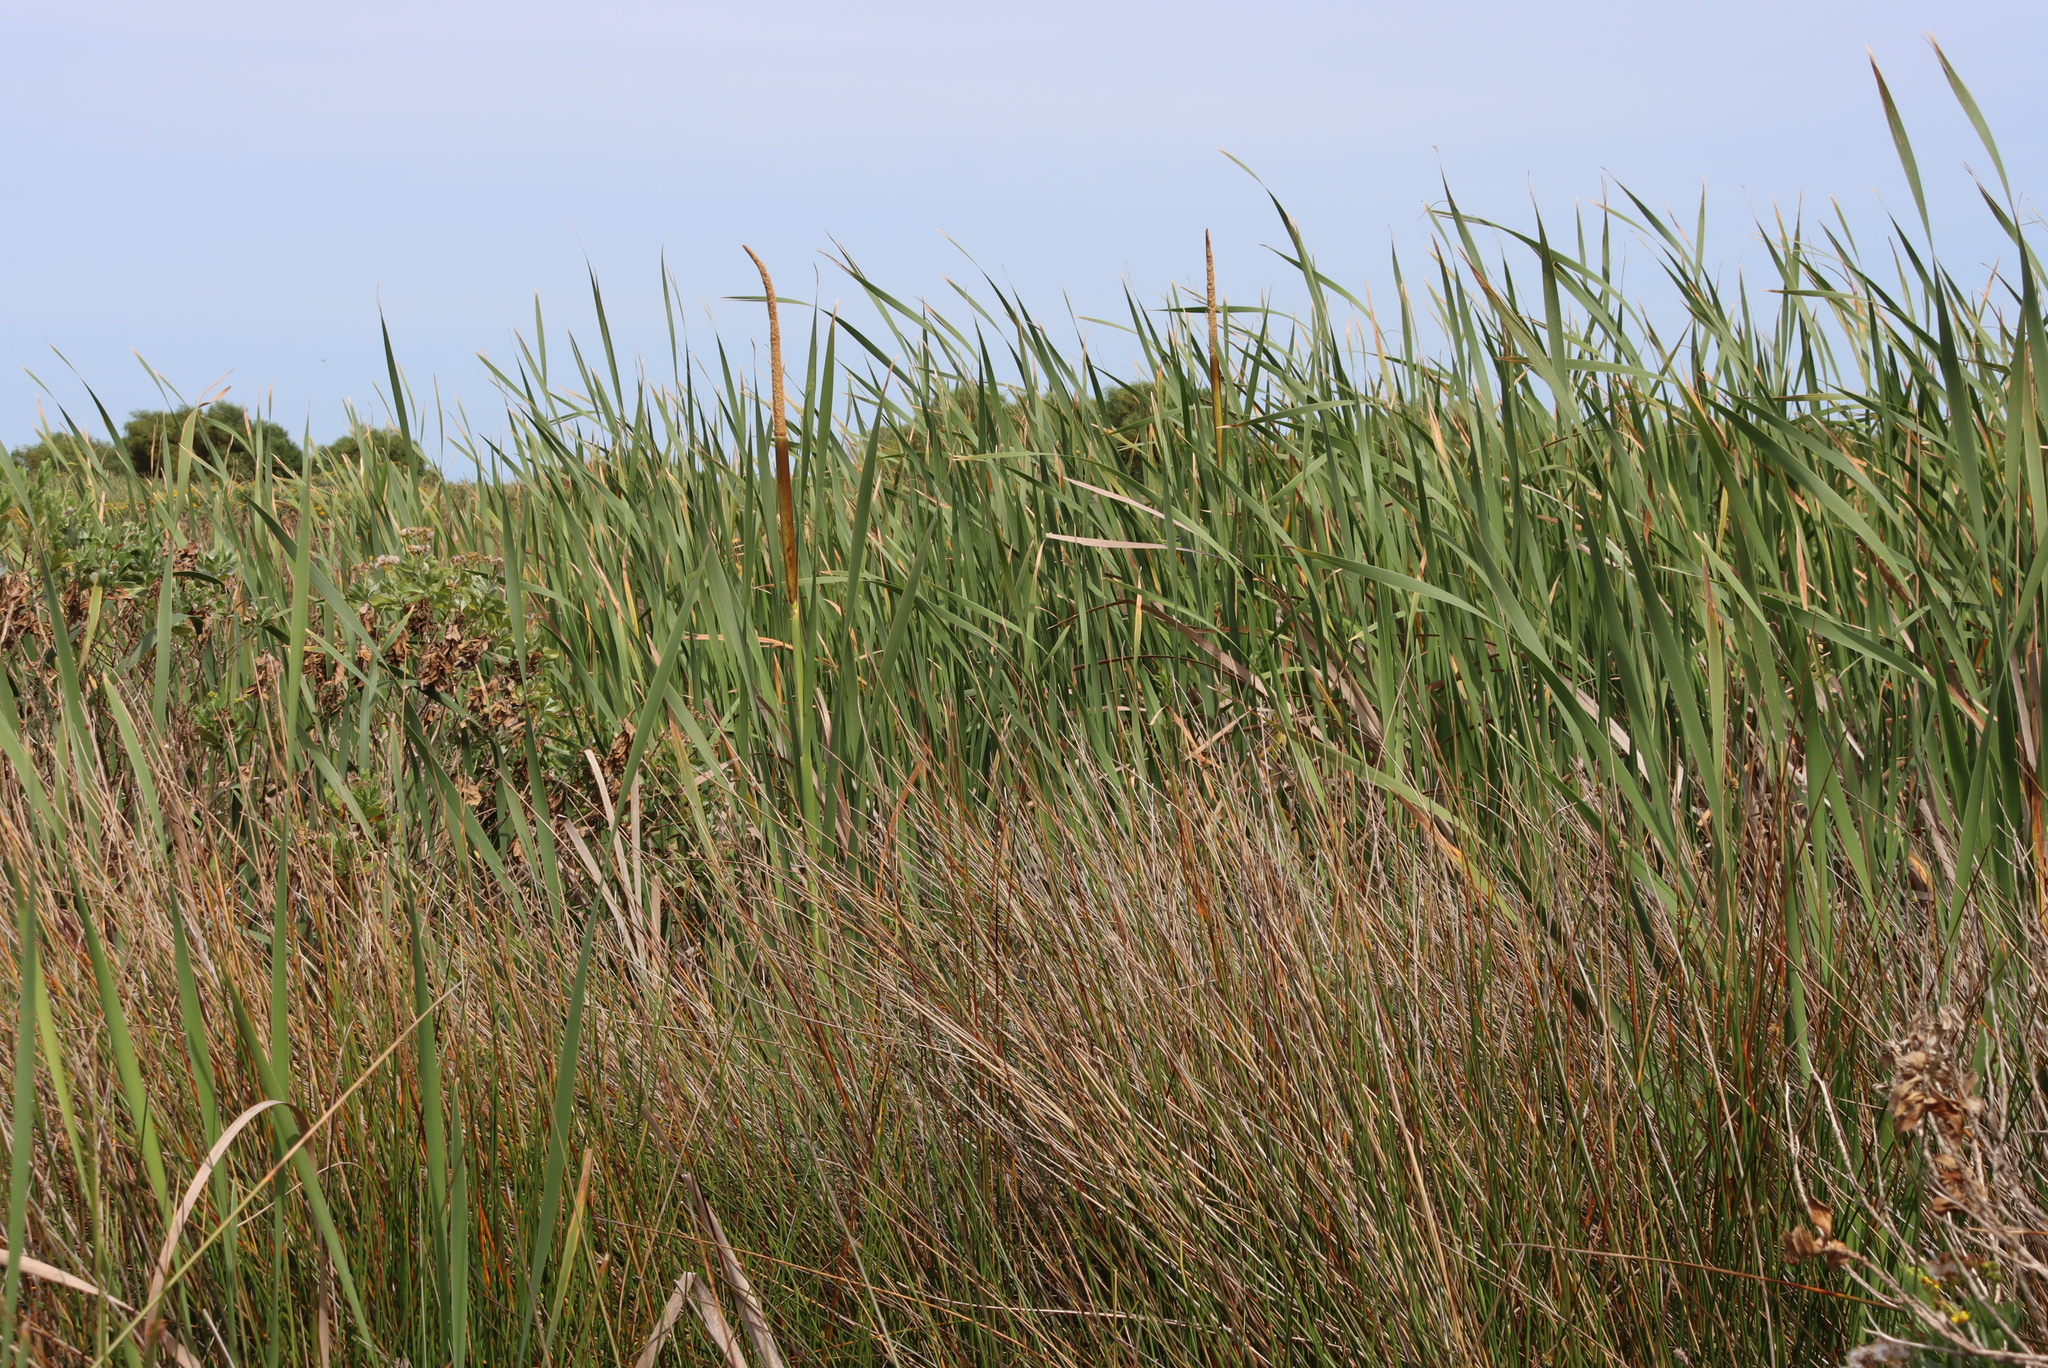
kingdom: Plantae
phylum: Tracheophyta
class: Liliopsida
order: Poales
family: Typhaceae
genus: Typha
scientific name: Typha capensis
